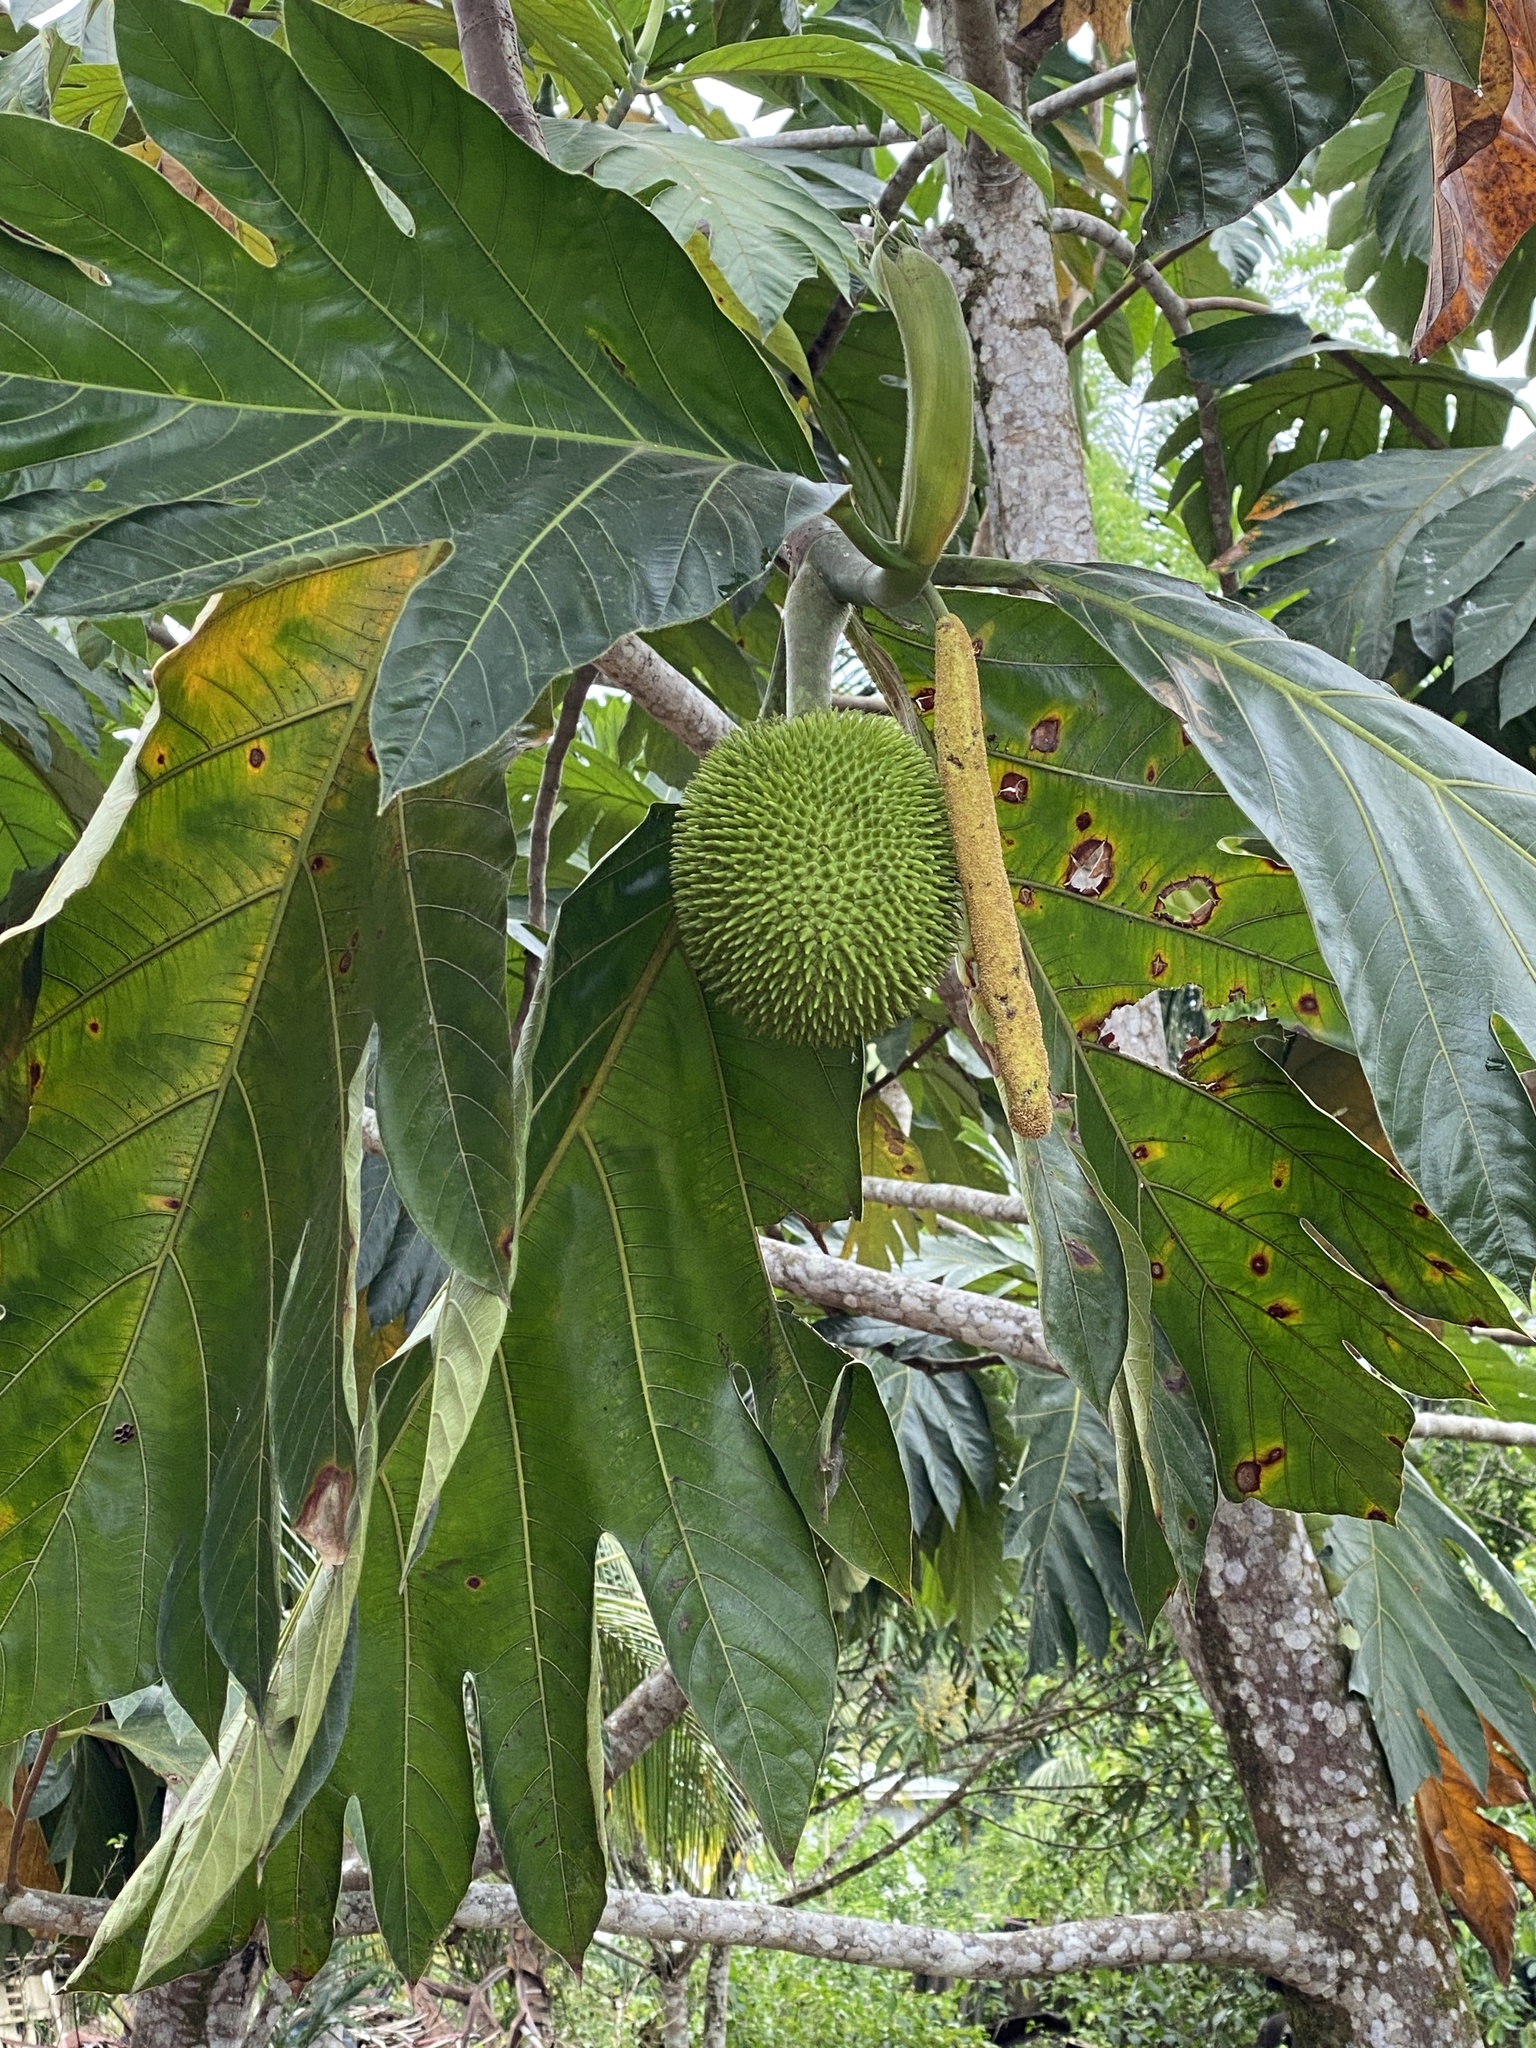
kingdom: Plantae
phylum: Tracheophyta
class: Magnoliopsida
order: Rosales
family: Moraceae
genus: Artocarpus
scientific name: Artocarpus altilis
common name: Breadfruit
